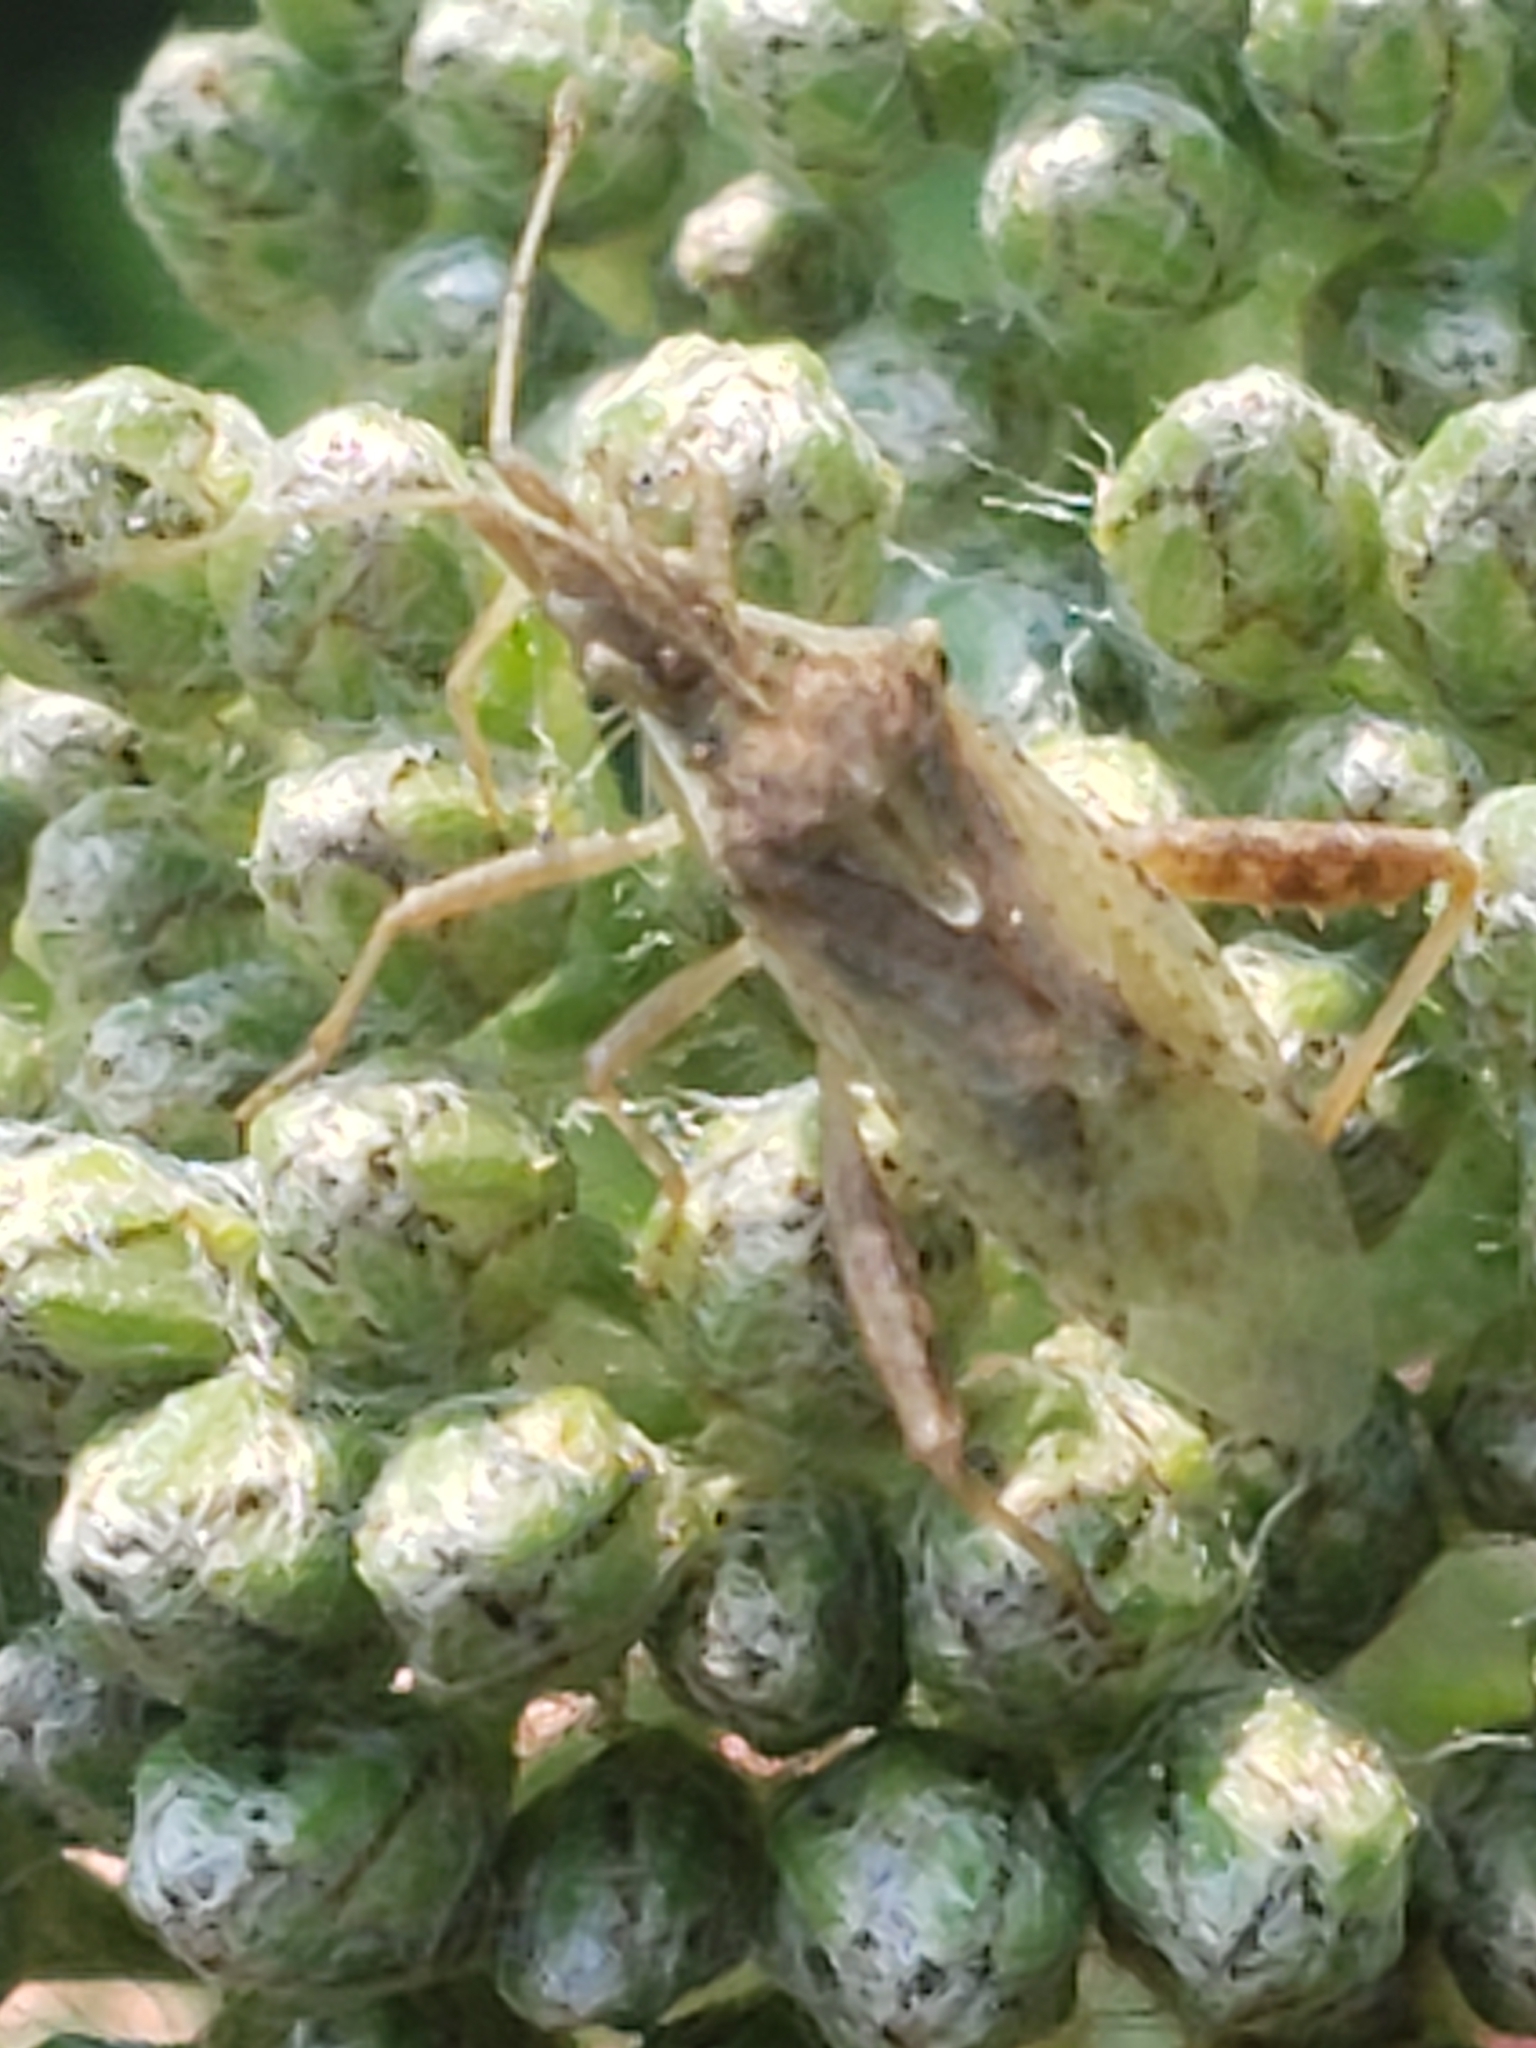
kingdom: Animalia
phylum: Arthropoda
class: Insecta
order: Hemiptera
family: Rhopalidae
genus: Harmostes
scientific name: Harmostes reflexulus
